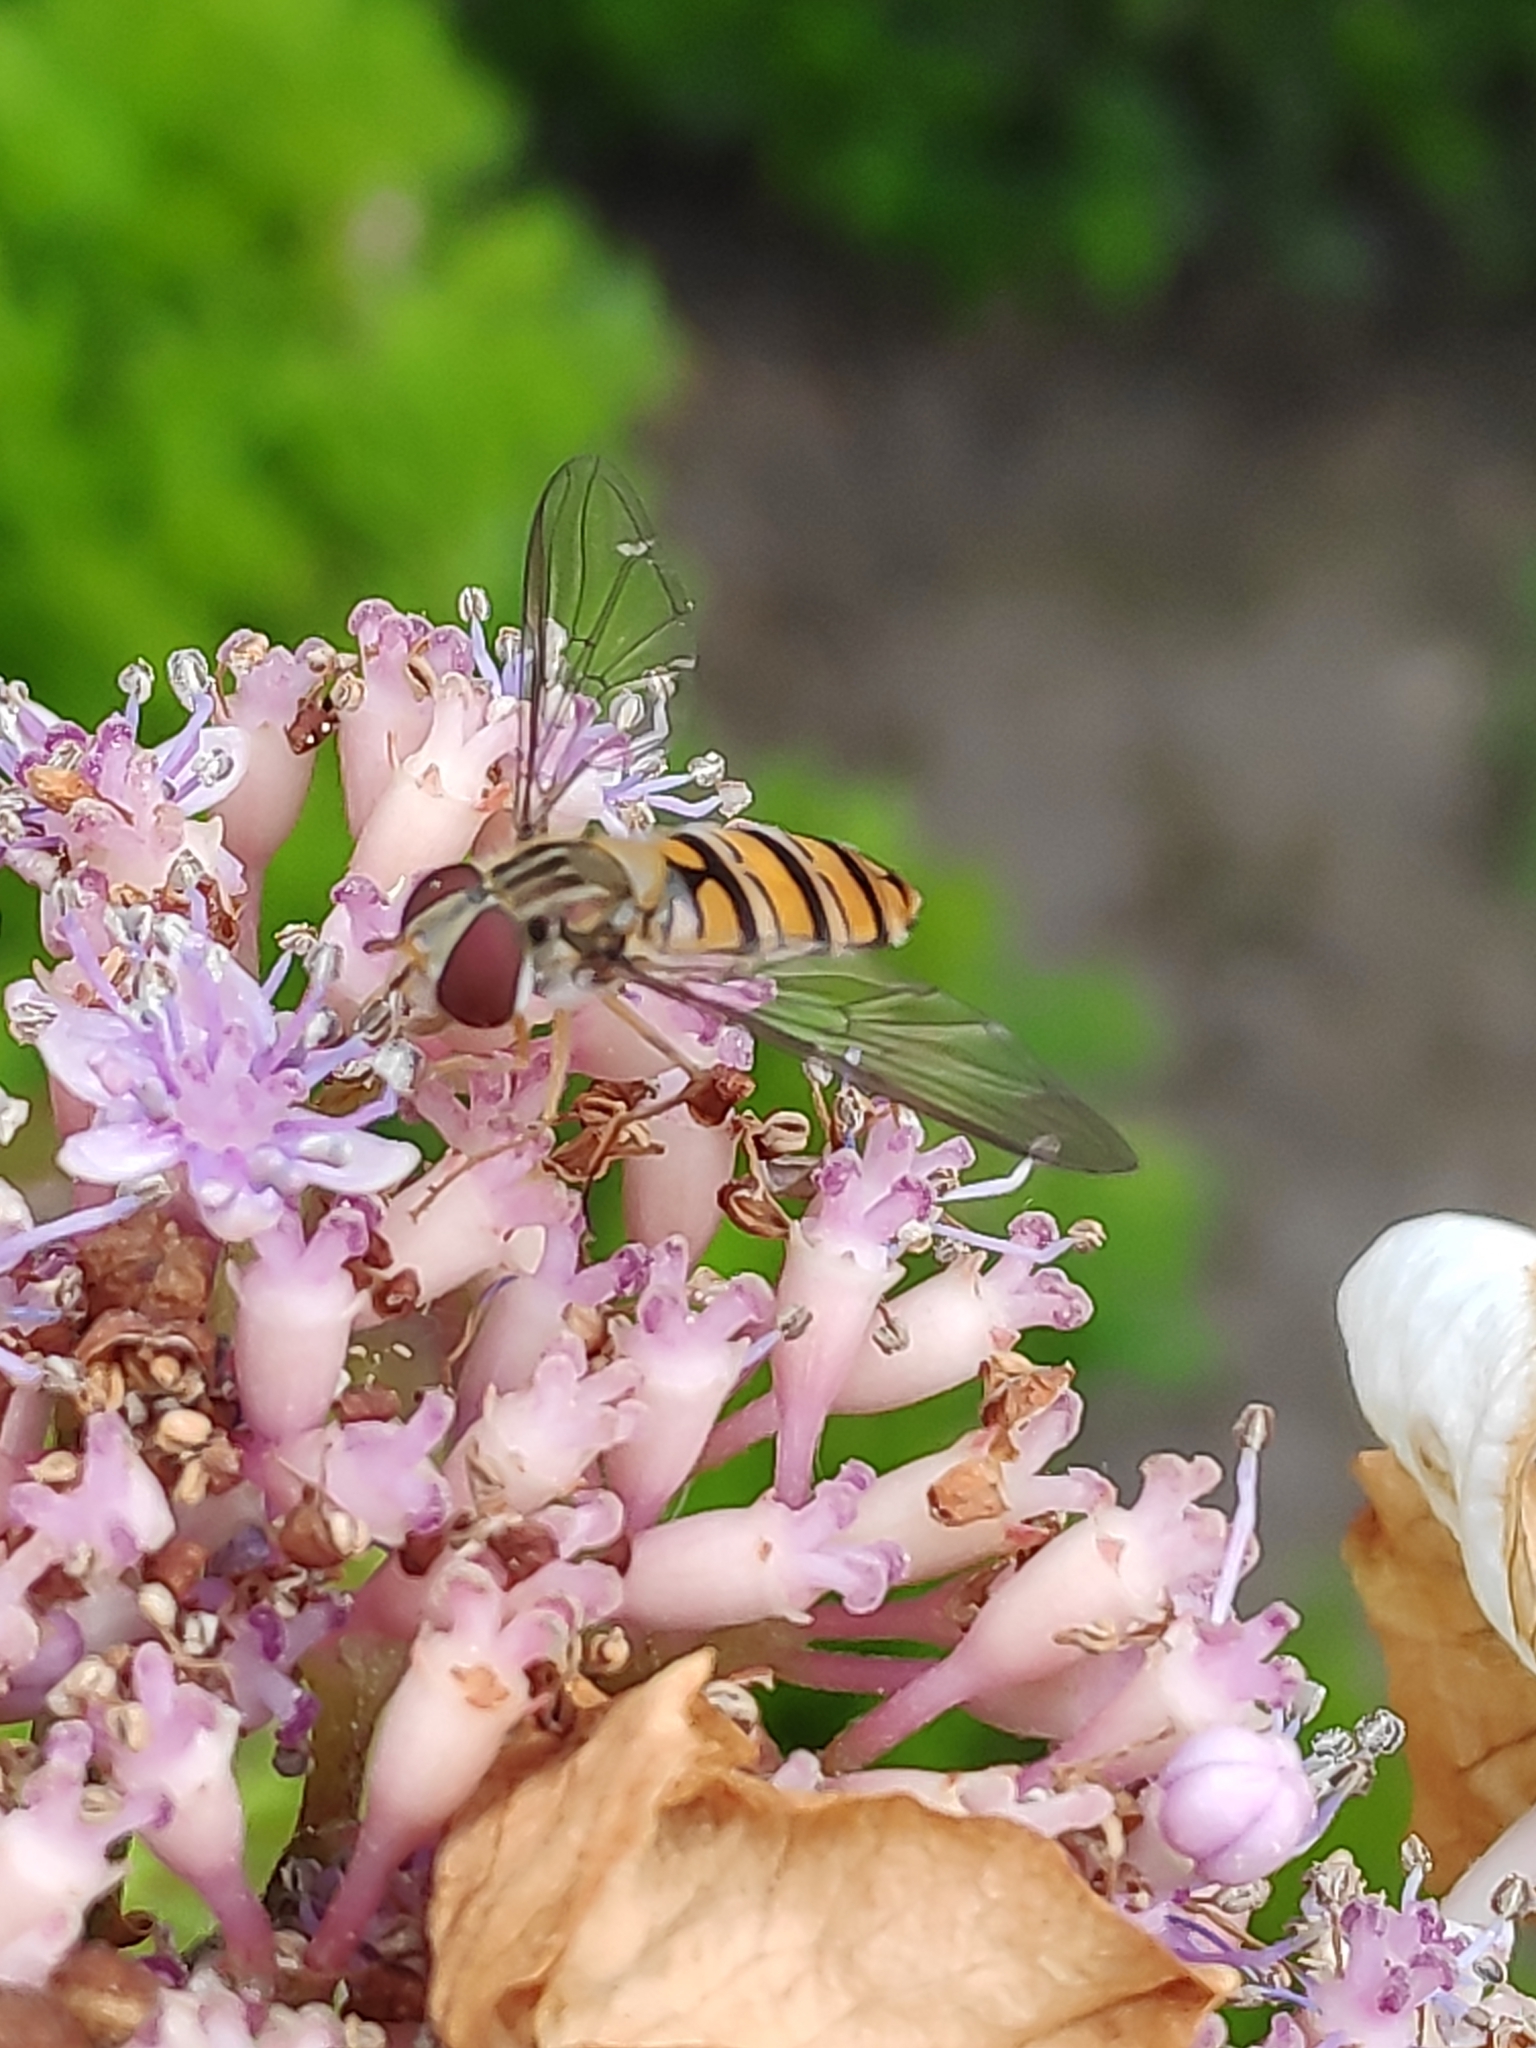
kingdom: Animalia
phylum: Arthropoda
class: Insecta
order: Diptera
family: Syrphidae
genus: Episyrphus
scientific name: Episyrphus balteatus
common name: Marmalade hoverfly
